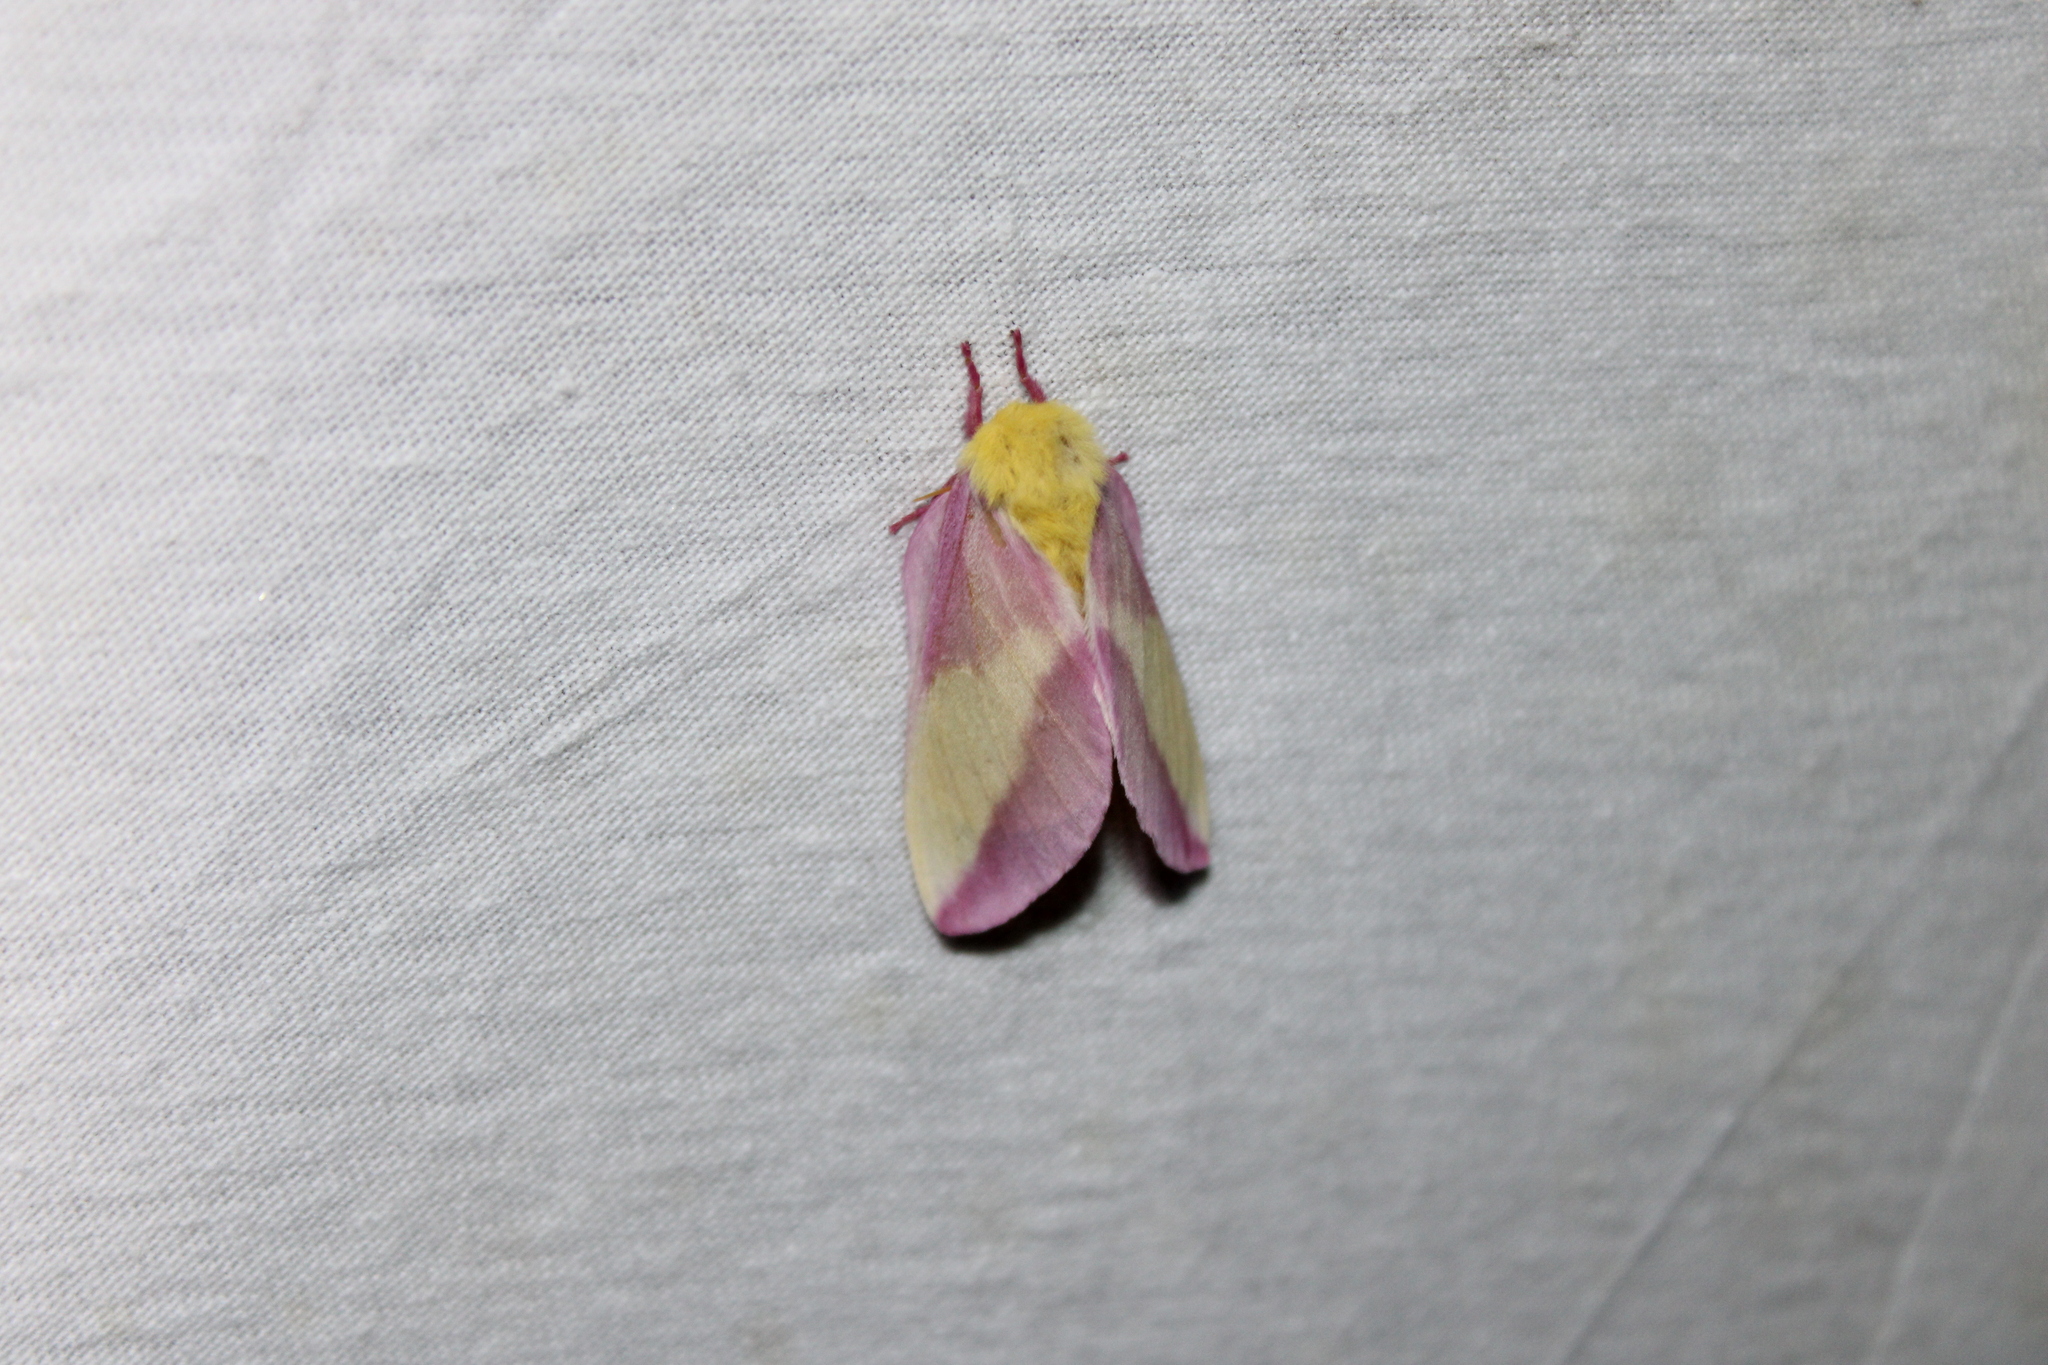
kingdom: Animalia
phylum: Arthropoda
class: Insecta
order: Lepidoptera
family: Saturniidae
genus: Dryocampa
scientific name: Dryocampa rubicunda
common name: Rosy maple moth
